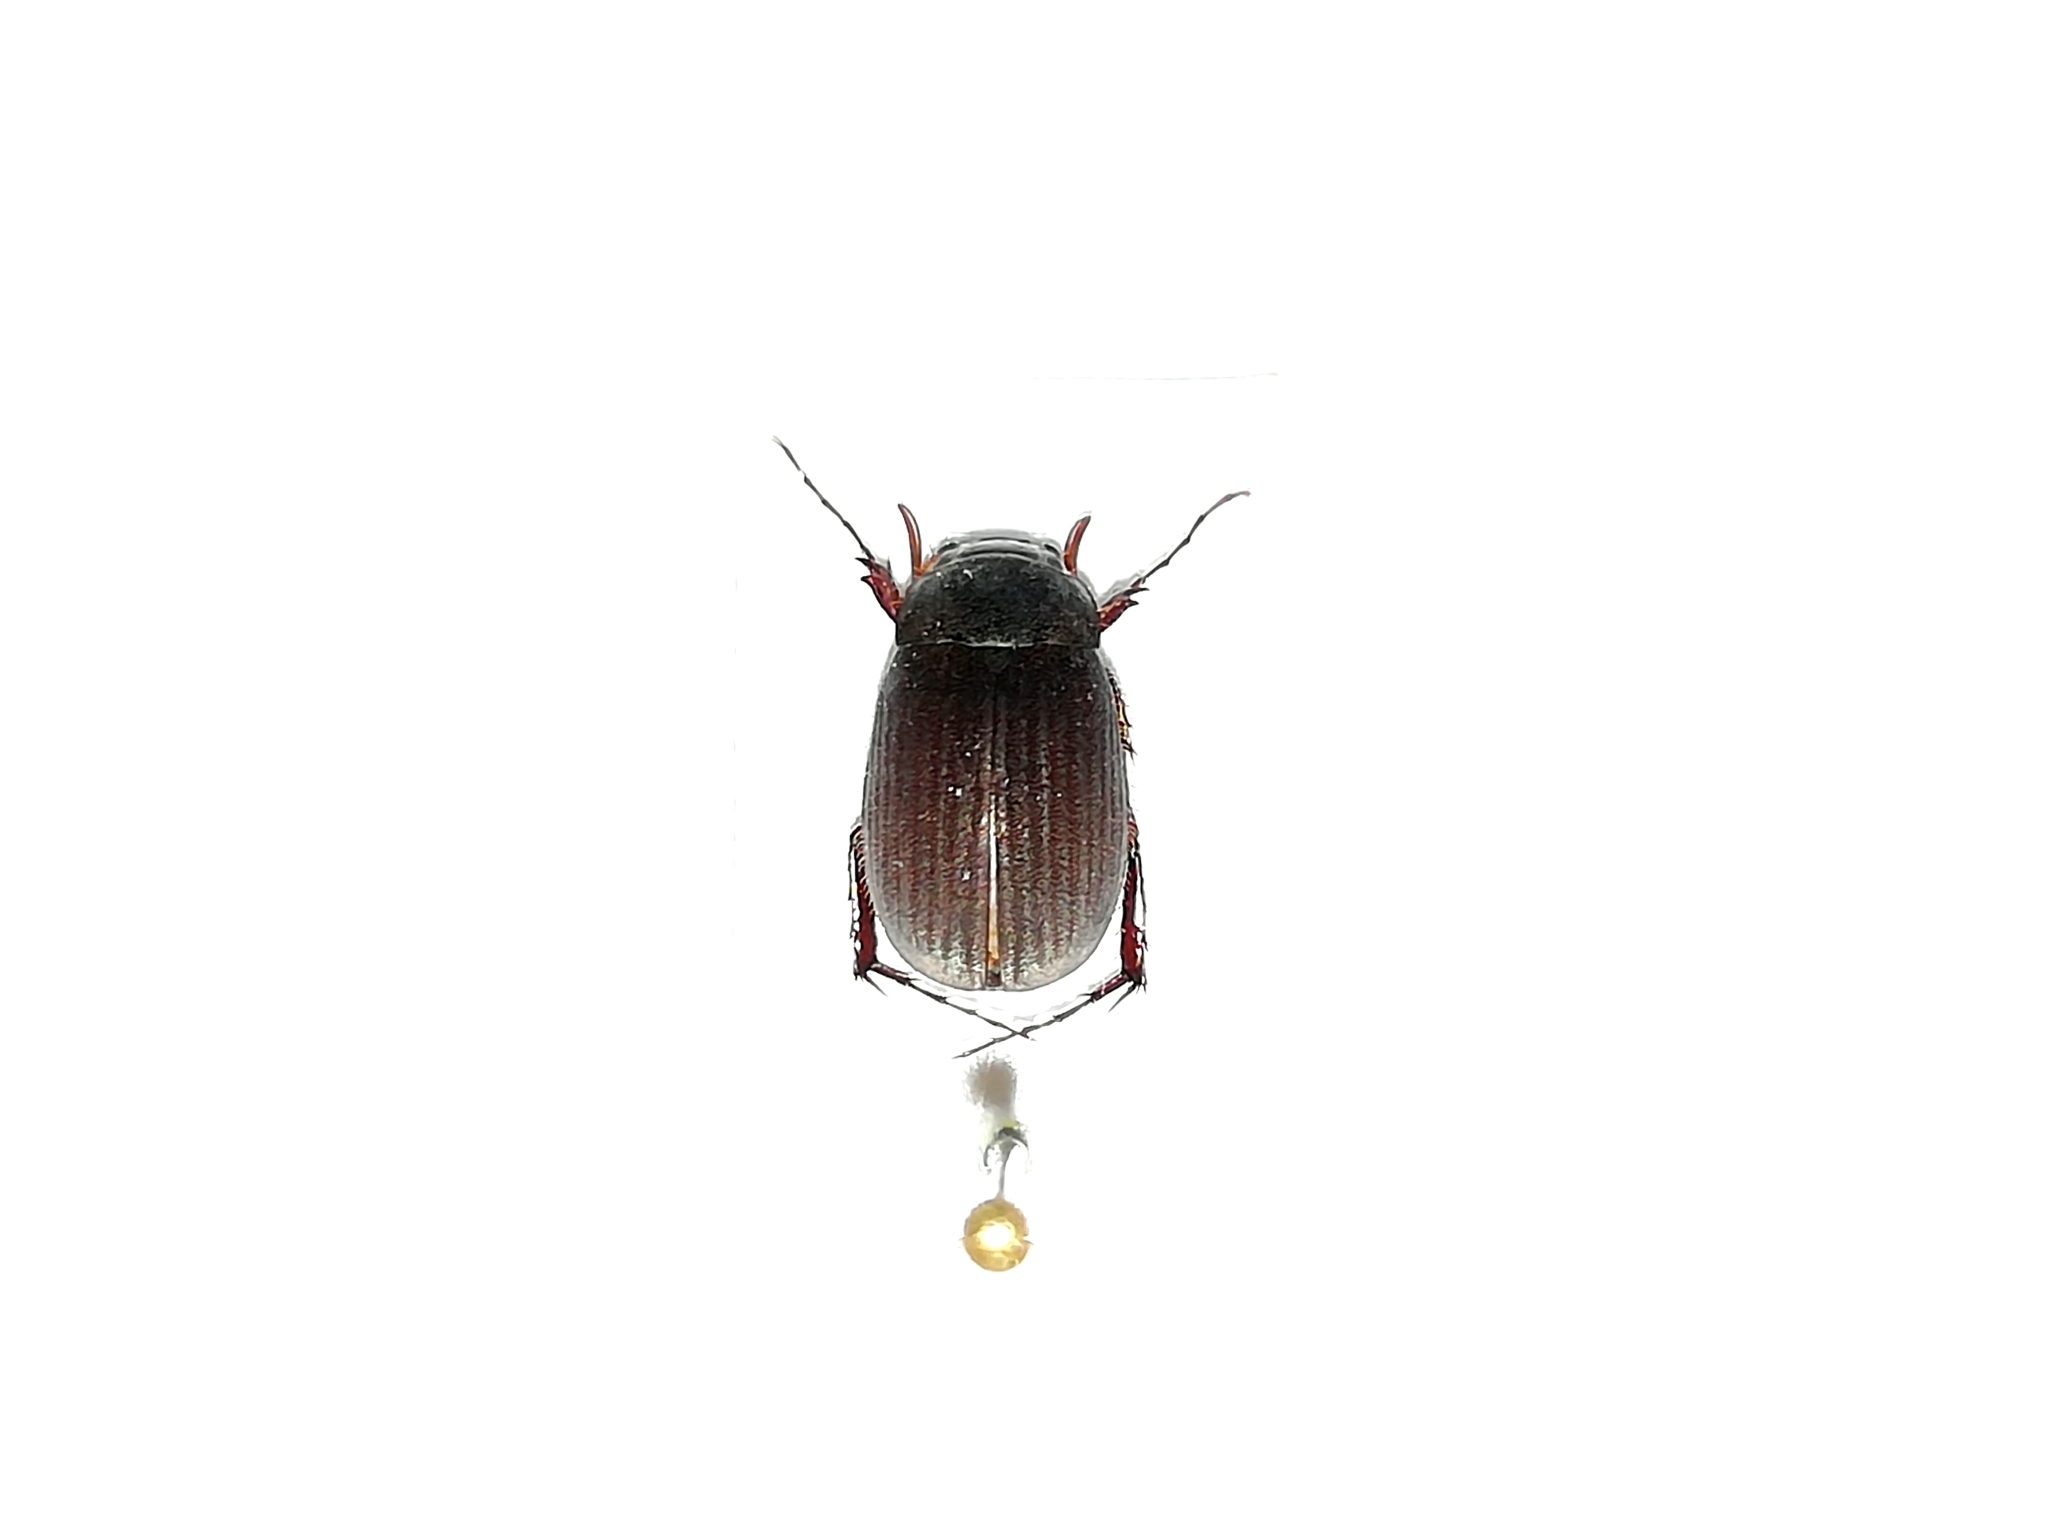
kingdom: Animalia
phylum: Arthropoda
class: Insecta
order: Coleoptera
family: Scarabaeidae
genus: Maladera
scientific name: Maladera holosericea
